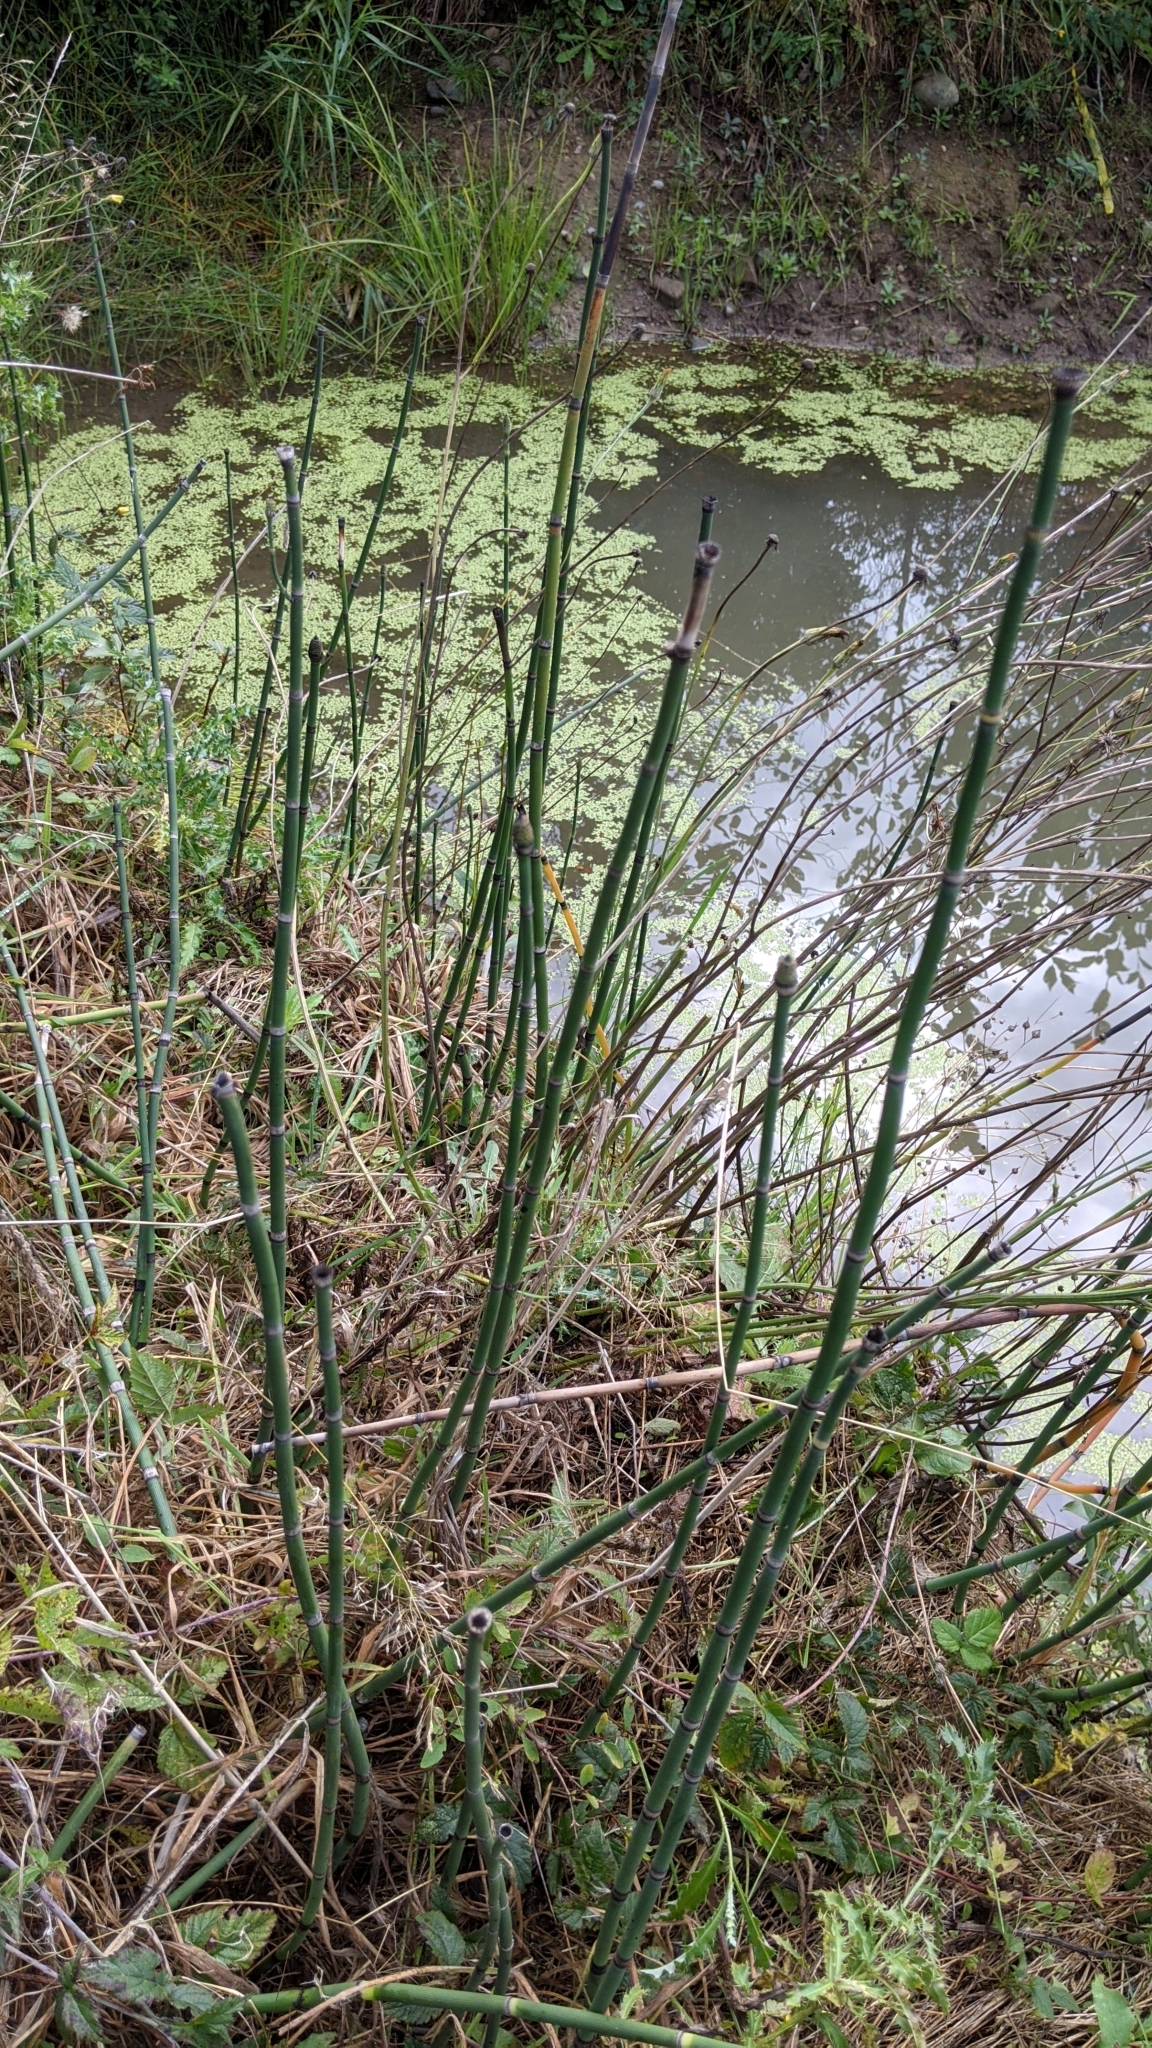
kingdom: Plantae
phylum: Tracheophyta
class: Polypodiopsida
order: Equisetales
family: Equisetaceae
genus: Equisetum
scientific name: Equisetum praealtum
